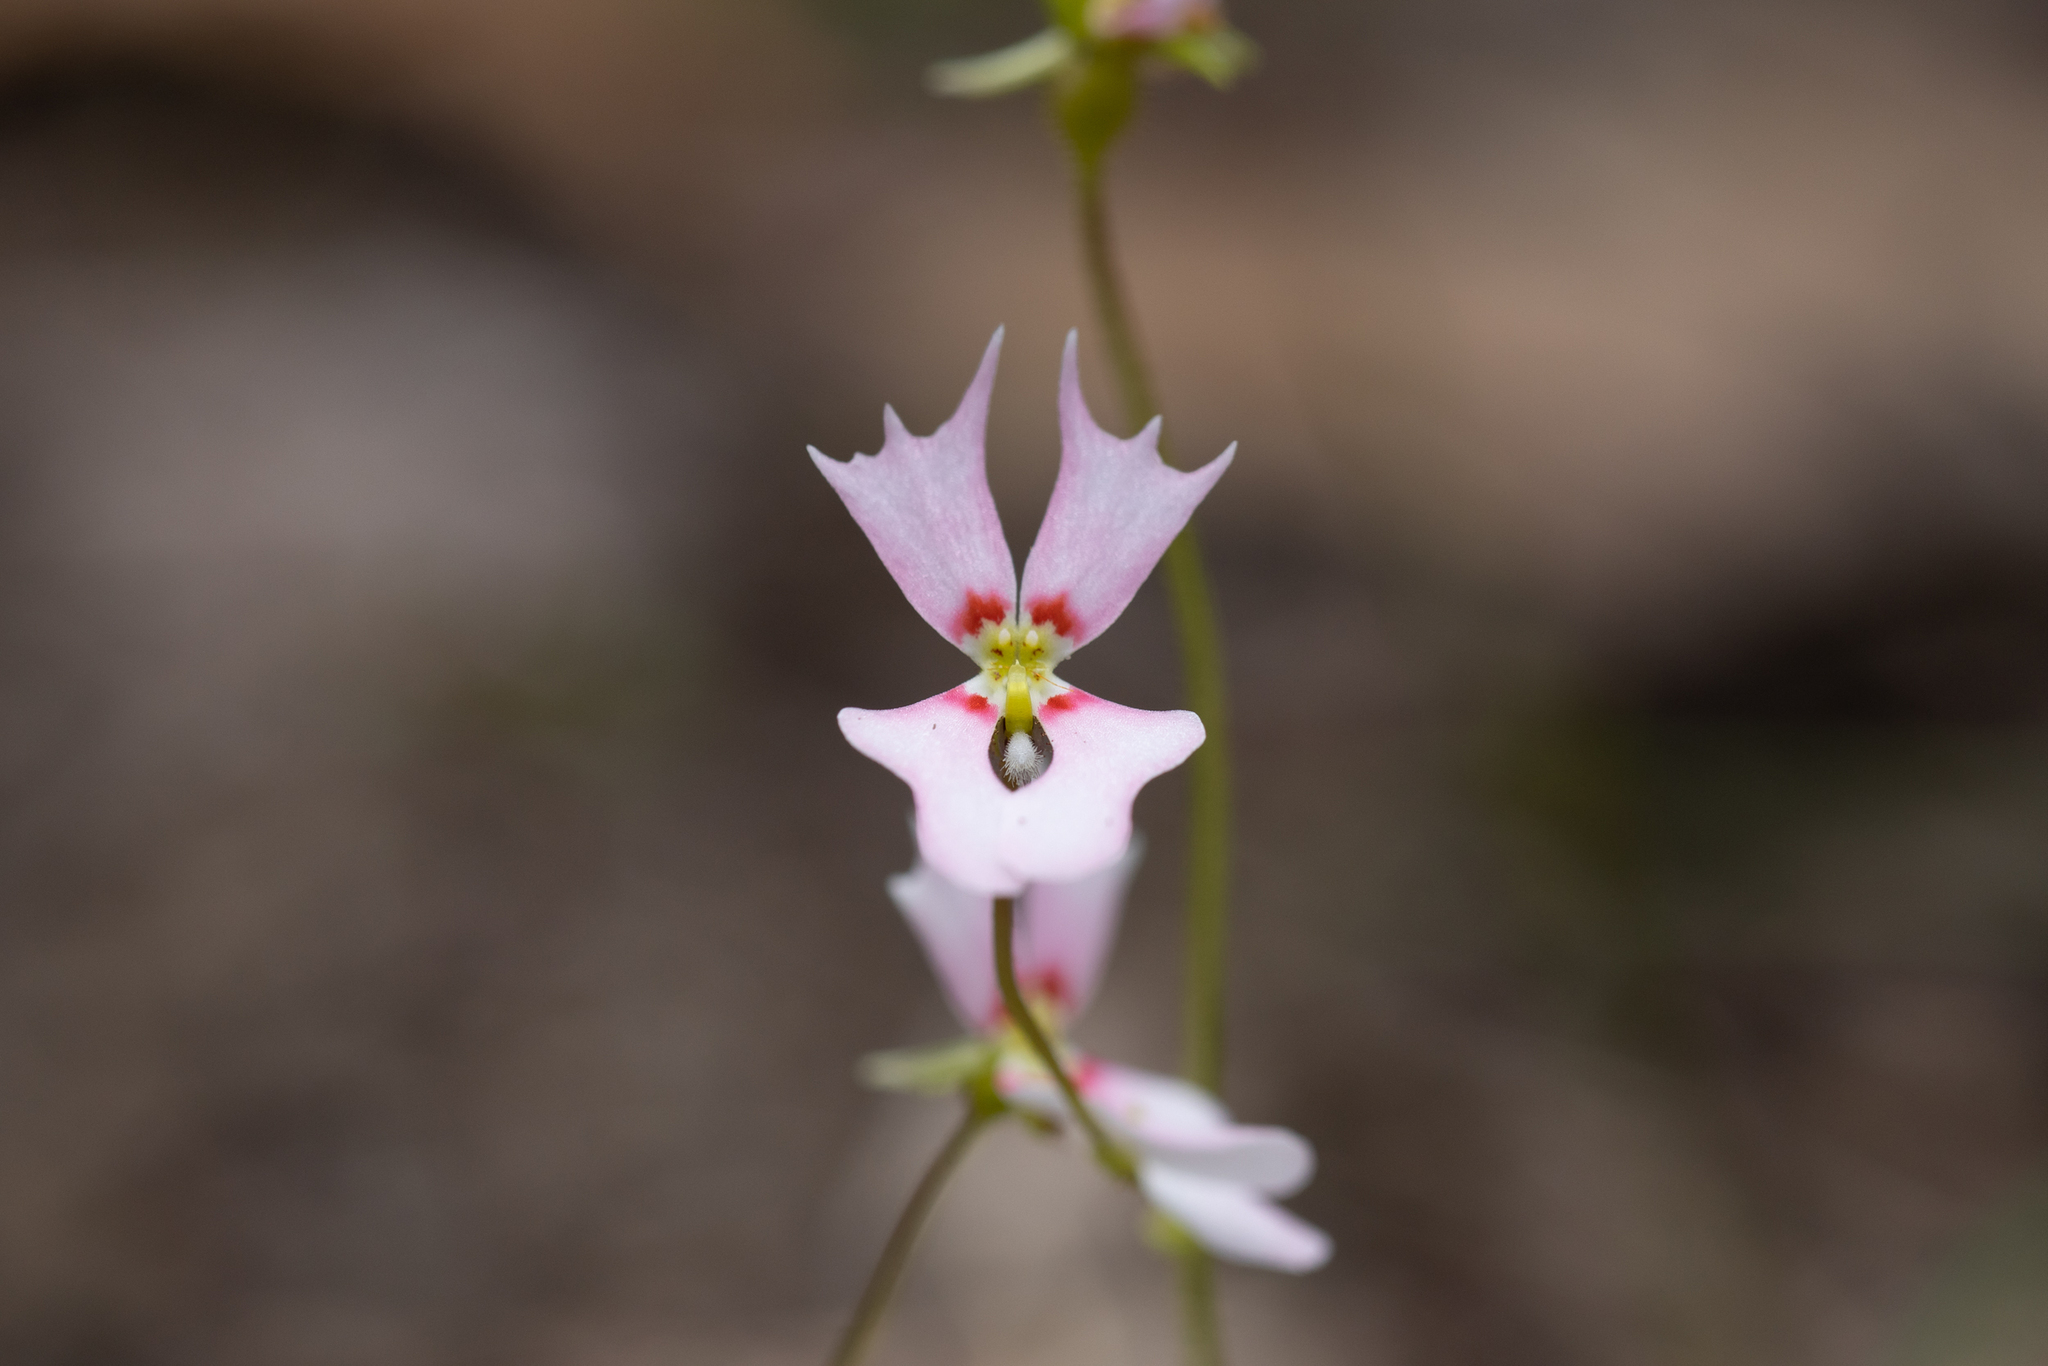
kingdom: Plantae
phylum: Tracheophyta
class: Magnoliopsida
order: Asterales
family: Stylidiaceae
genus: Stylidium
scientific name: Stylidium androsaceum
